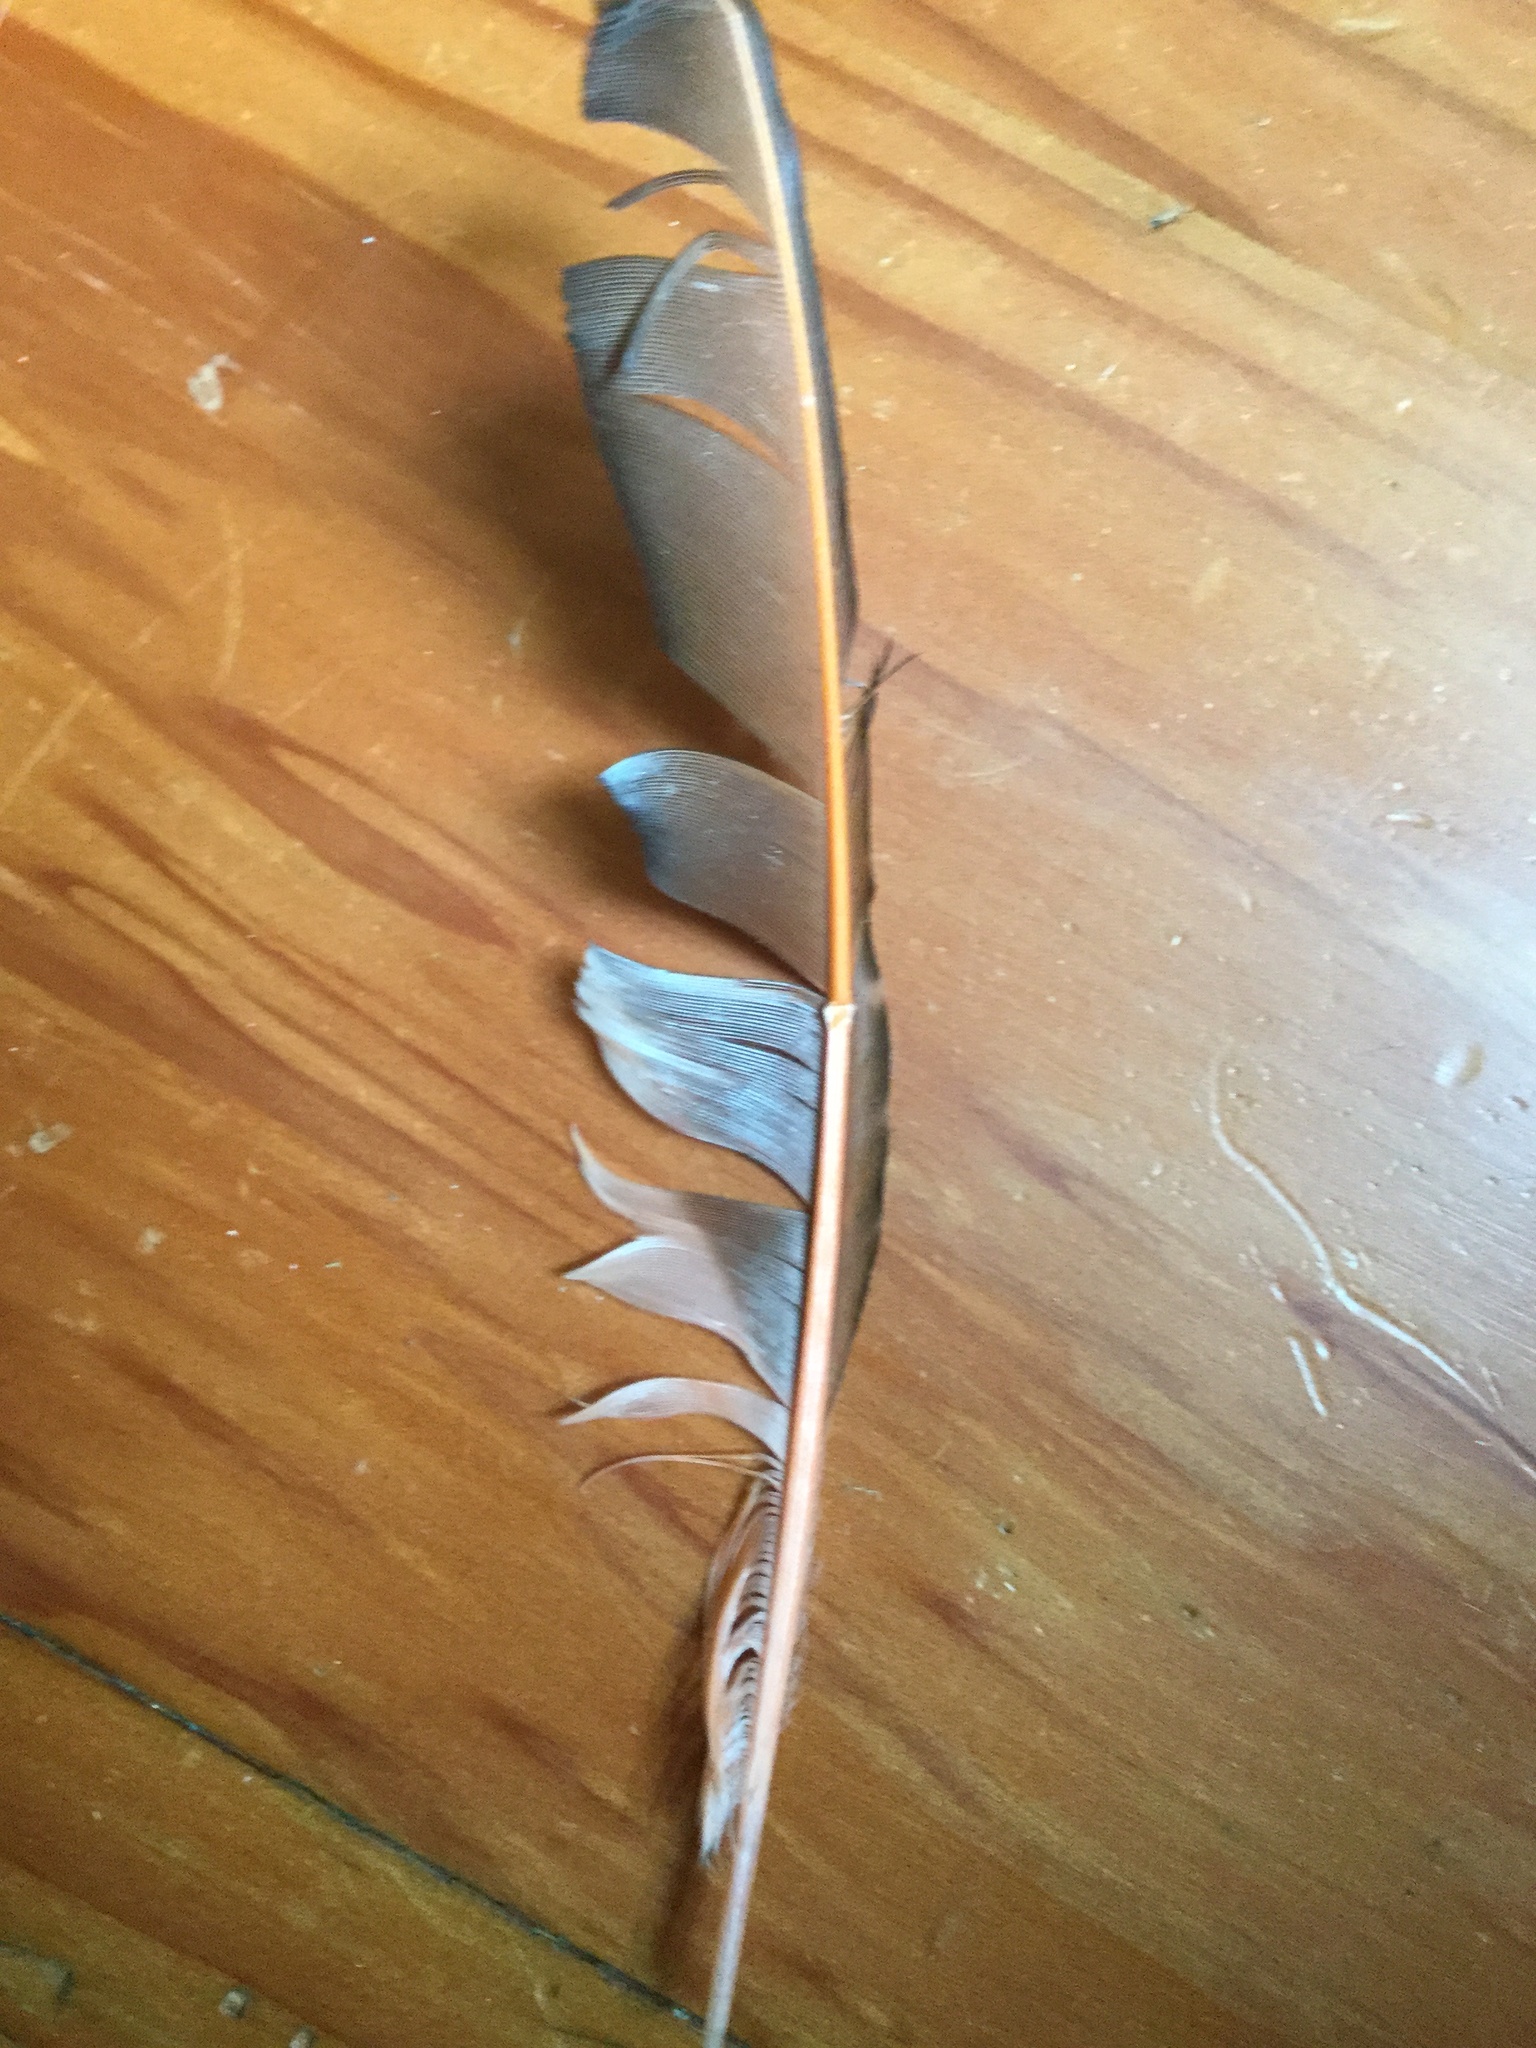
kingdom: Animalia
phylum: Chordata
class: Aves
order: Piciformes
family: Picidae
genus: Colaptes
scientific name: Colaptes auratus
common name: Northern flicker
